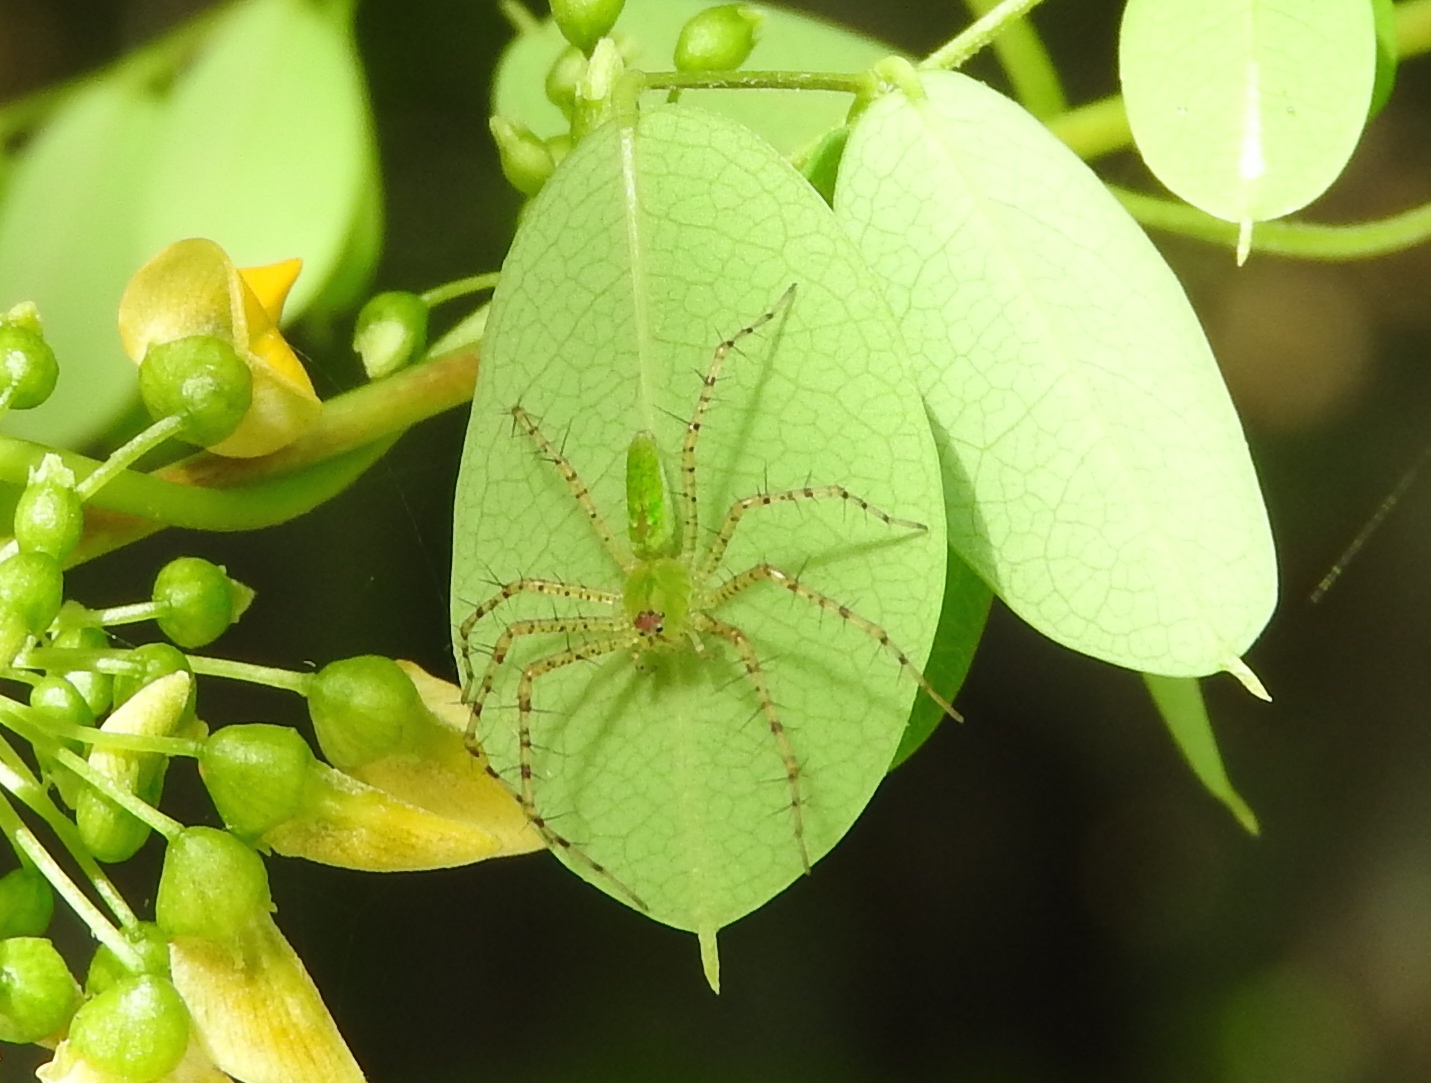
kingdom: Animalia
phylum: Arthropoda
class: Arachnida
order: Araneae
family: Oxyopidae
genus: Peucetia
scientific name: Peucetia
